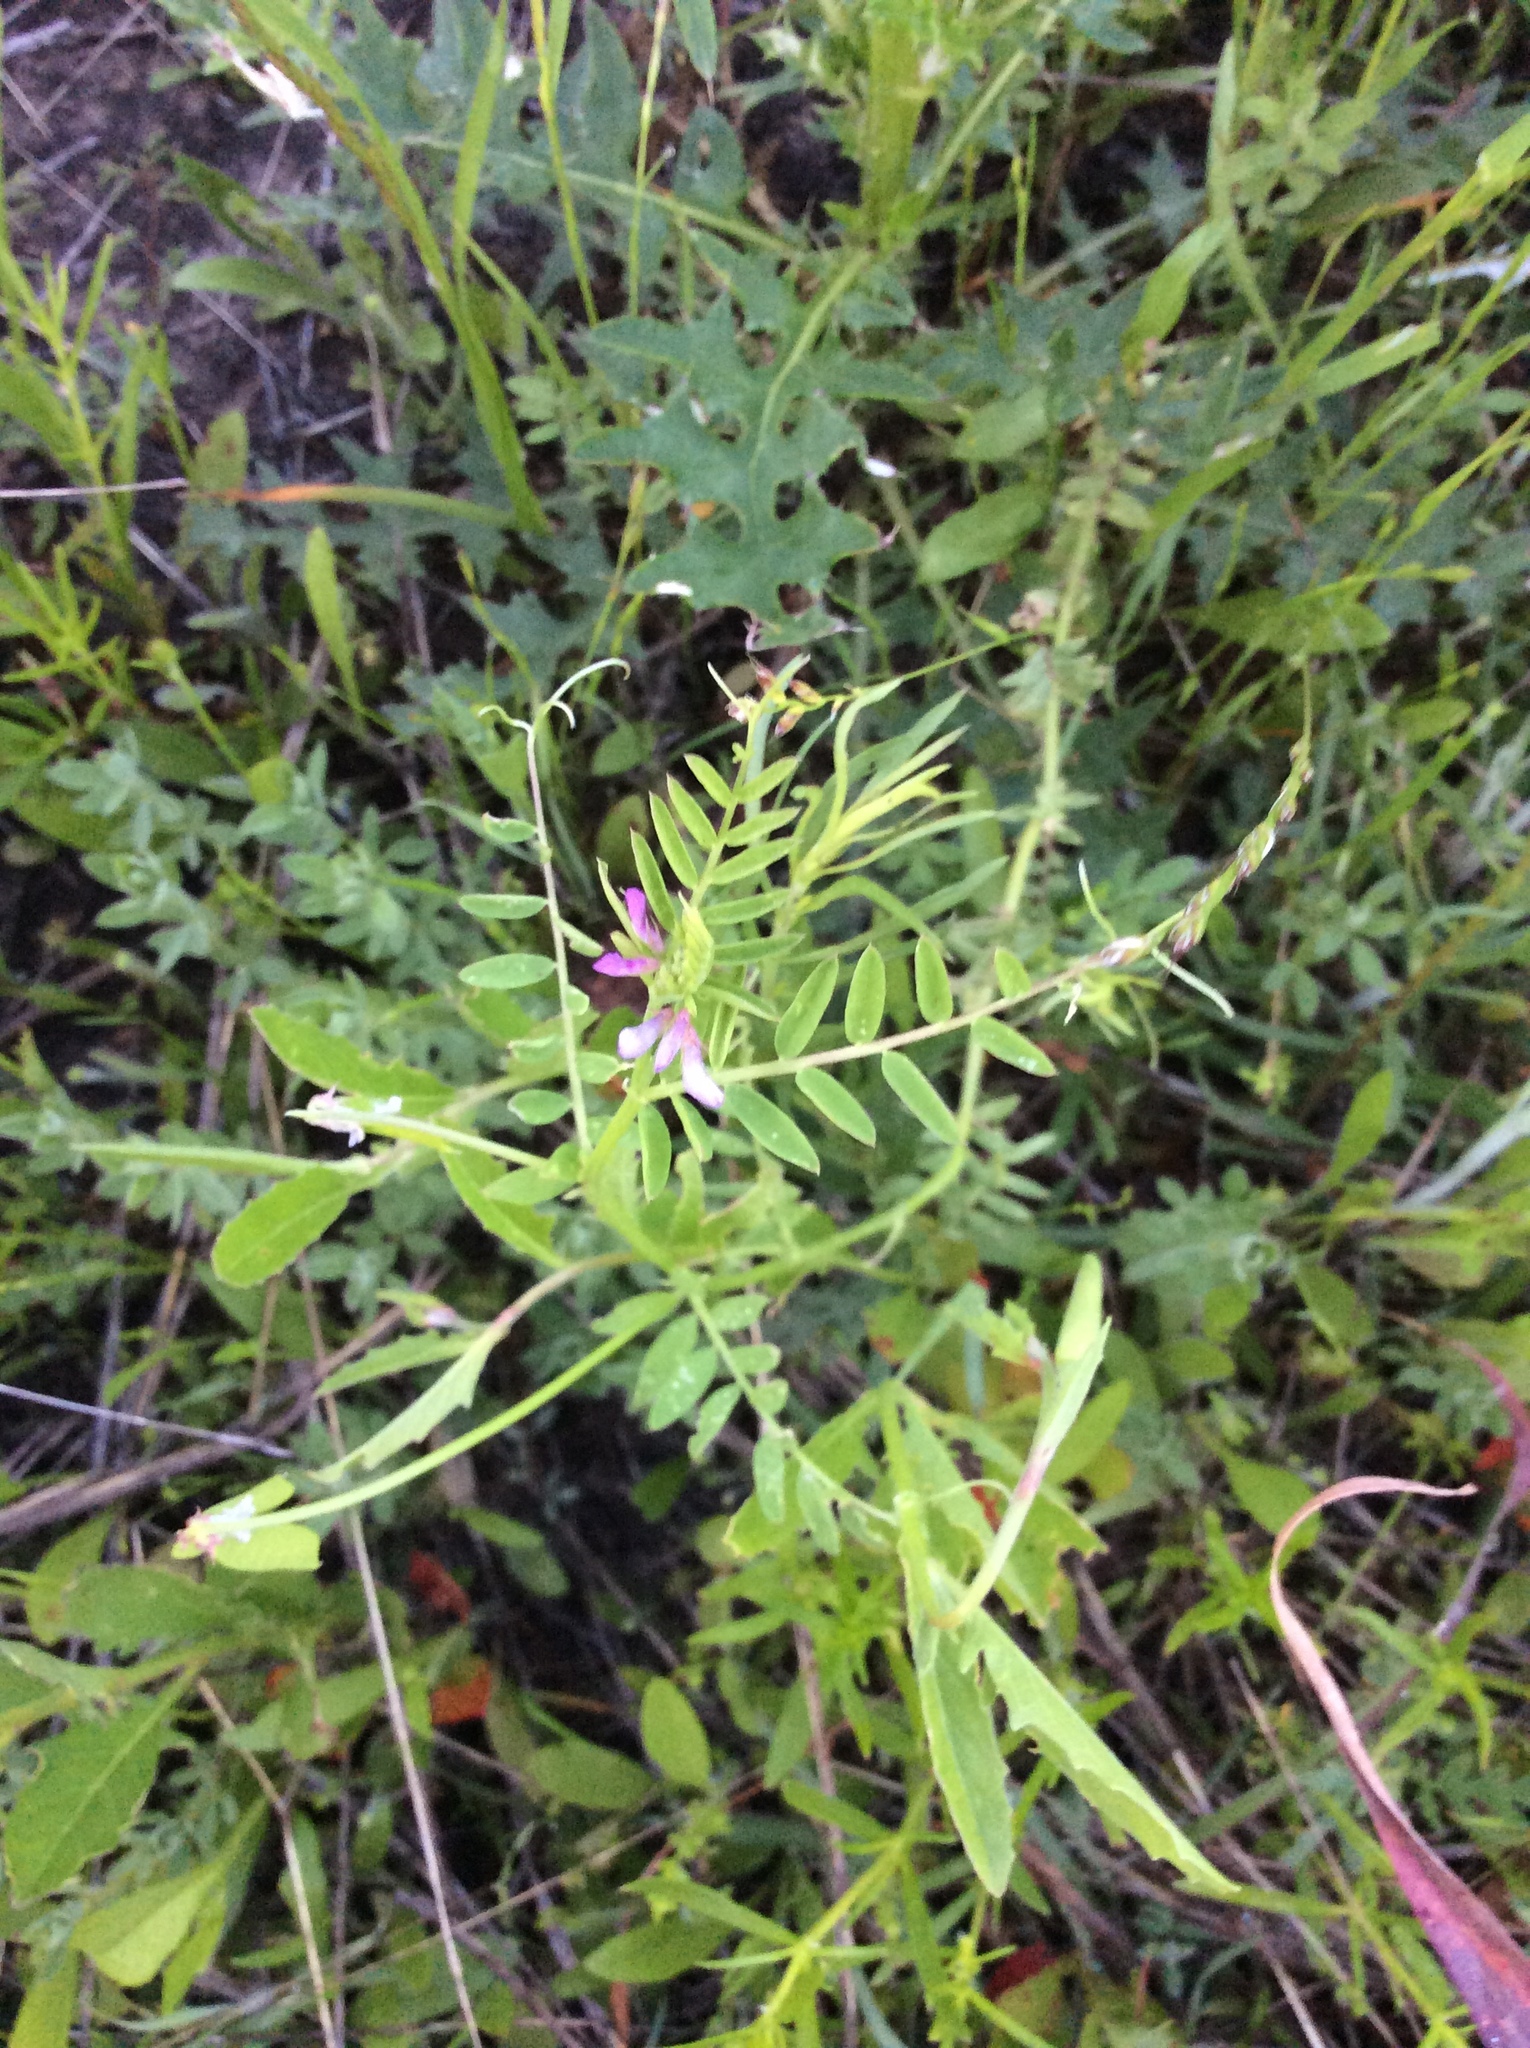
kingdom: Plantae
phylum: Tracheophyta
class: Magnoliopsida
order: Fabales
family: Fabaceae
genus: Vicia
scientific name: Vicia sativa
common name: Garden vetch
